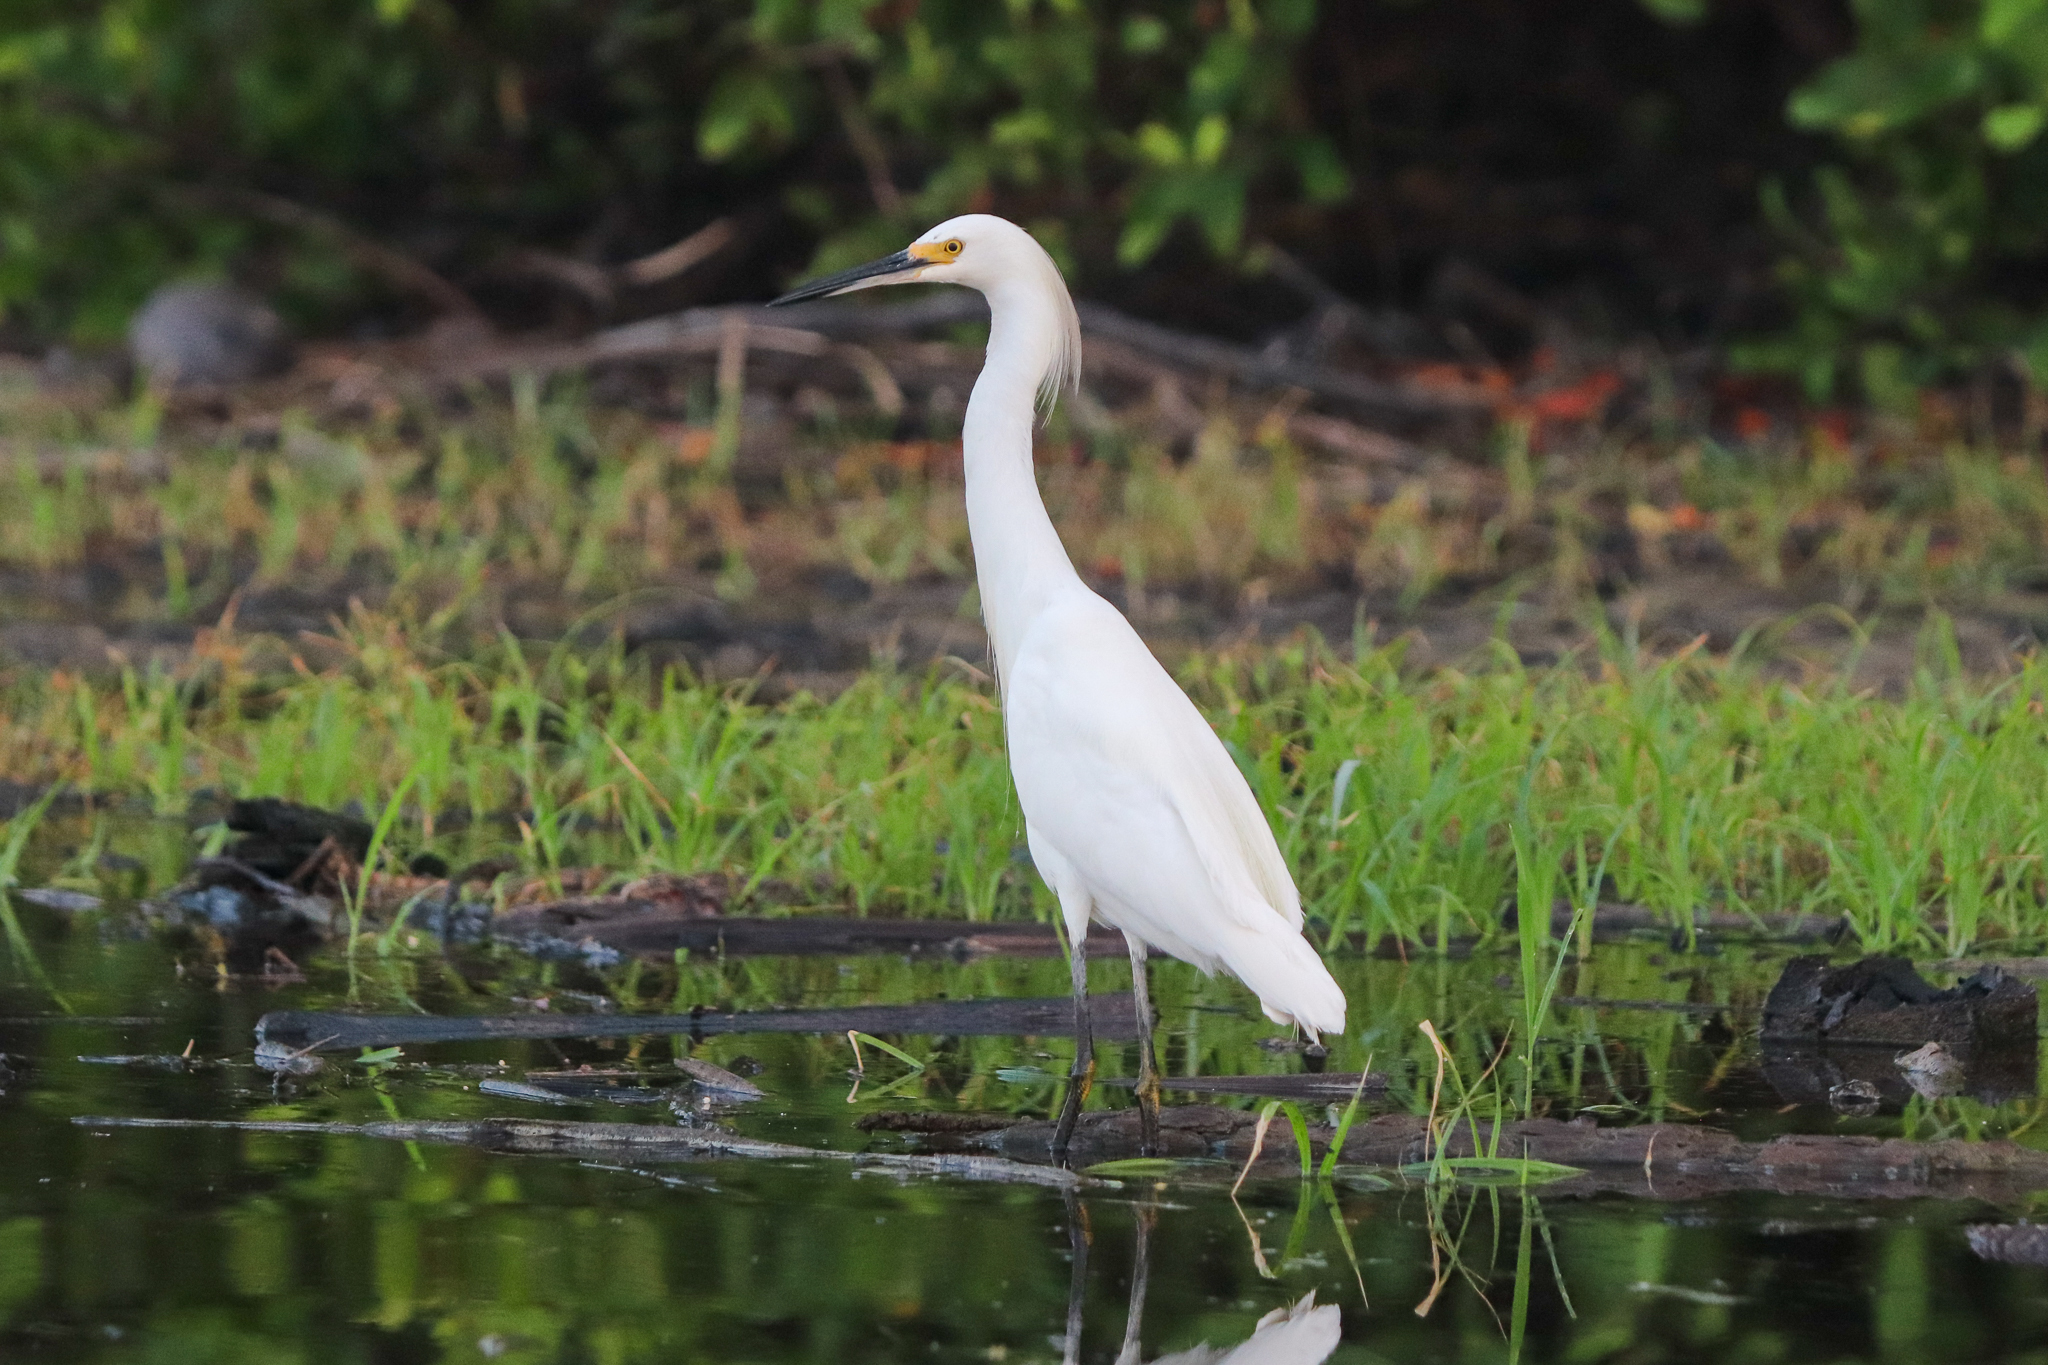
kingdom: Animalia
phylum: Chordata
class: Aves
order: Pelecaniformes
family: Ardeidae
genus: Egretta
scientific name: Egretta thula
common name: Snowy egret
